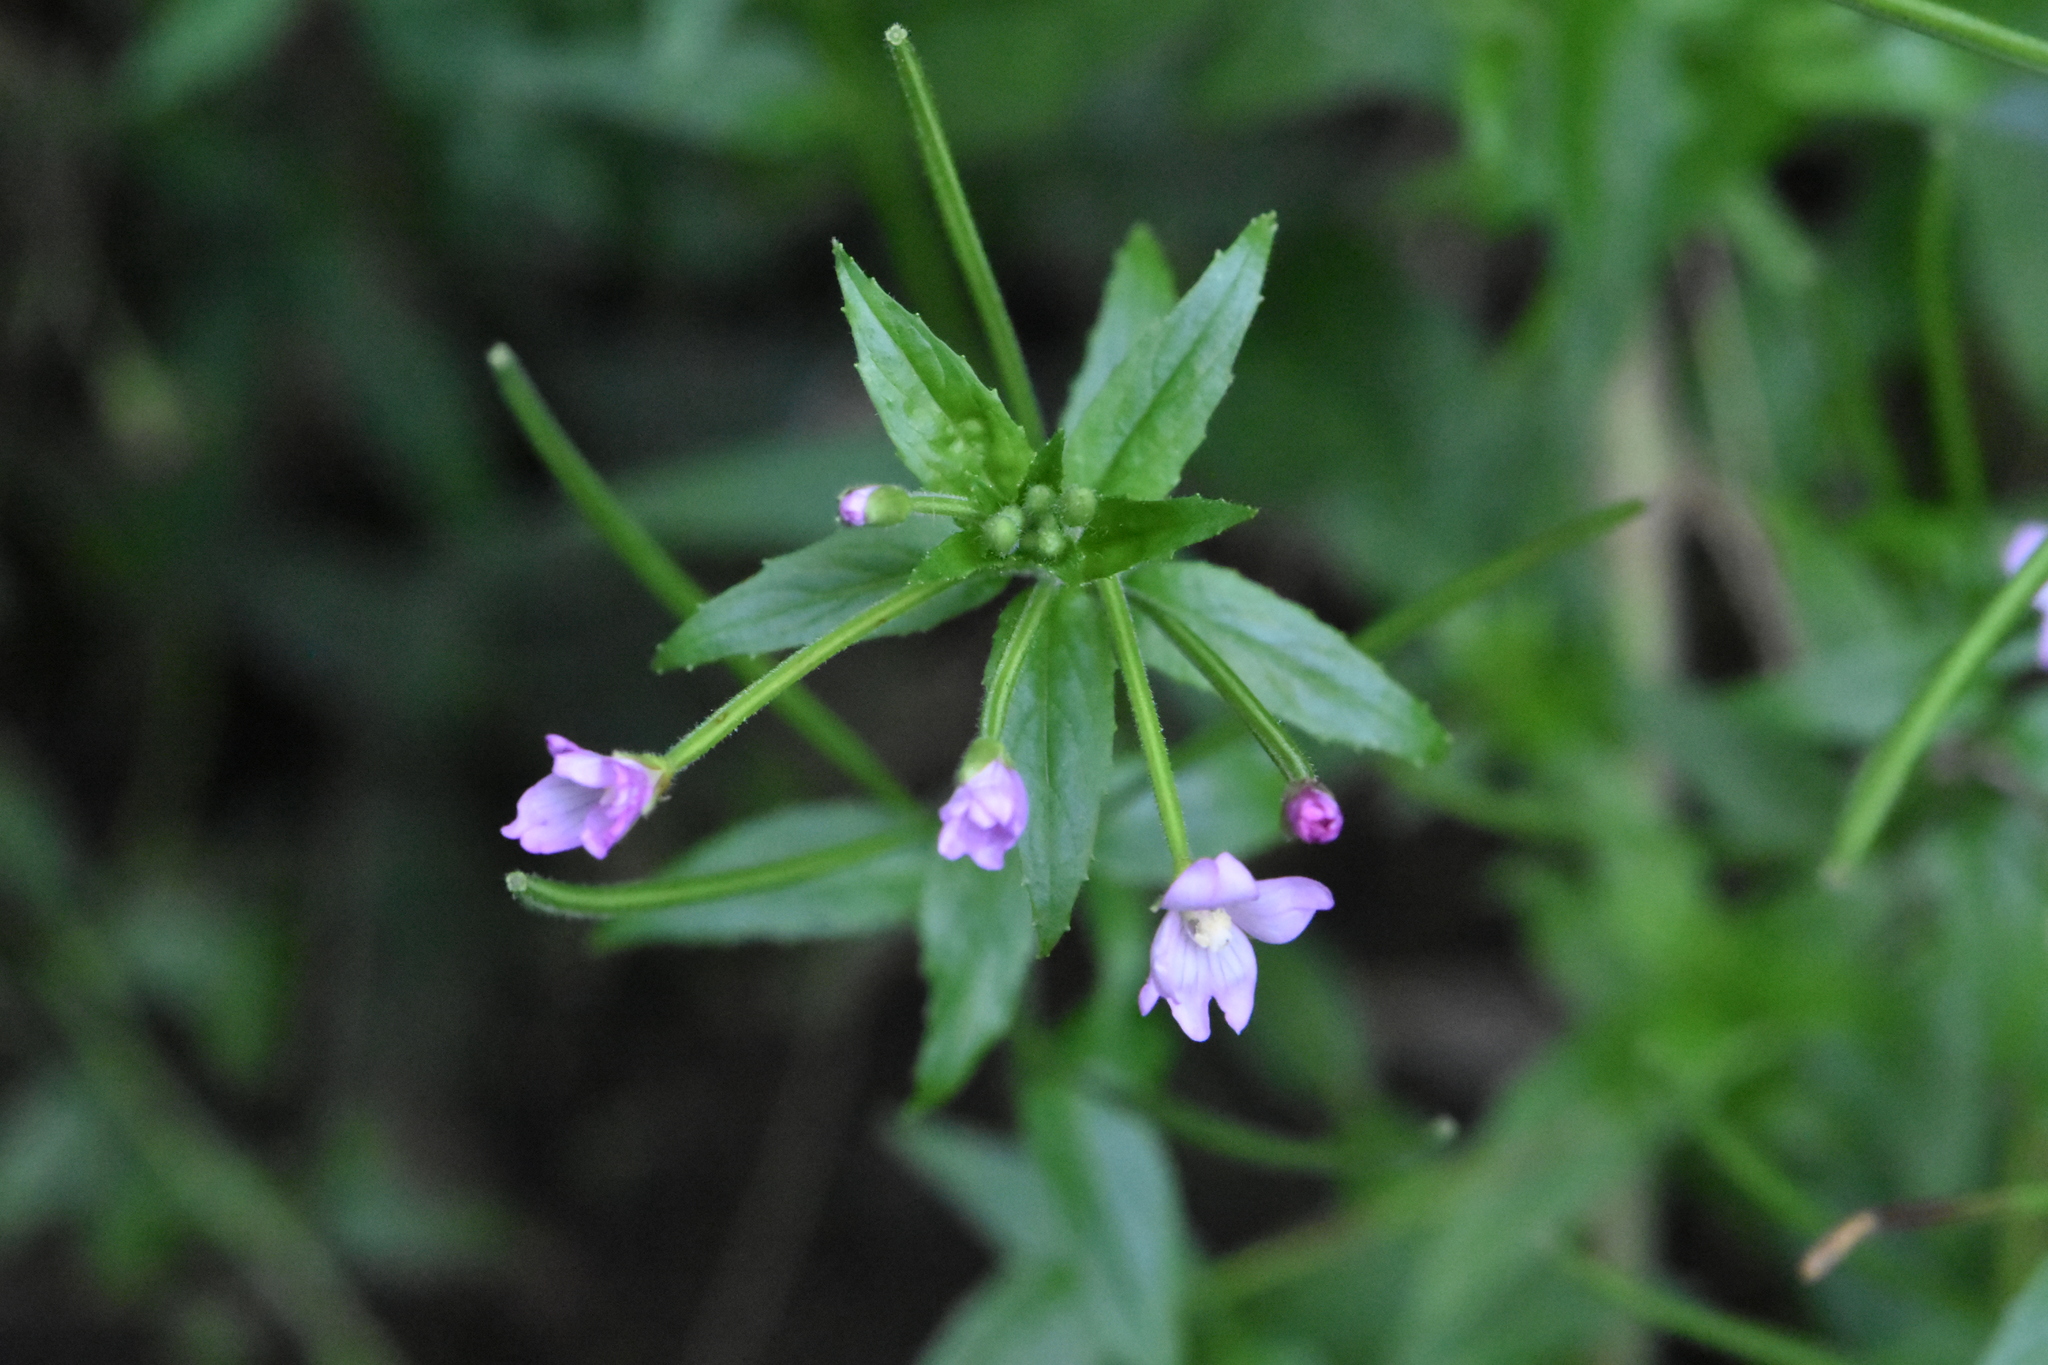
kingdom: Plantae
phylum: Tracheophyta
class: Magnoliopsida
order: Myrtales
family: Onagraceae
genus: Epilobium
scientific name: Epilobium ciliatum
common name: American willowherb
